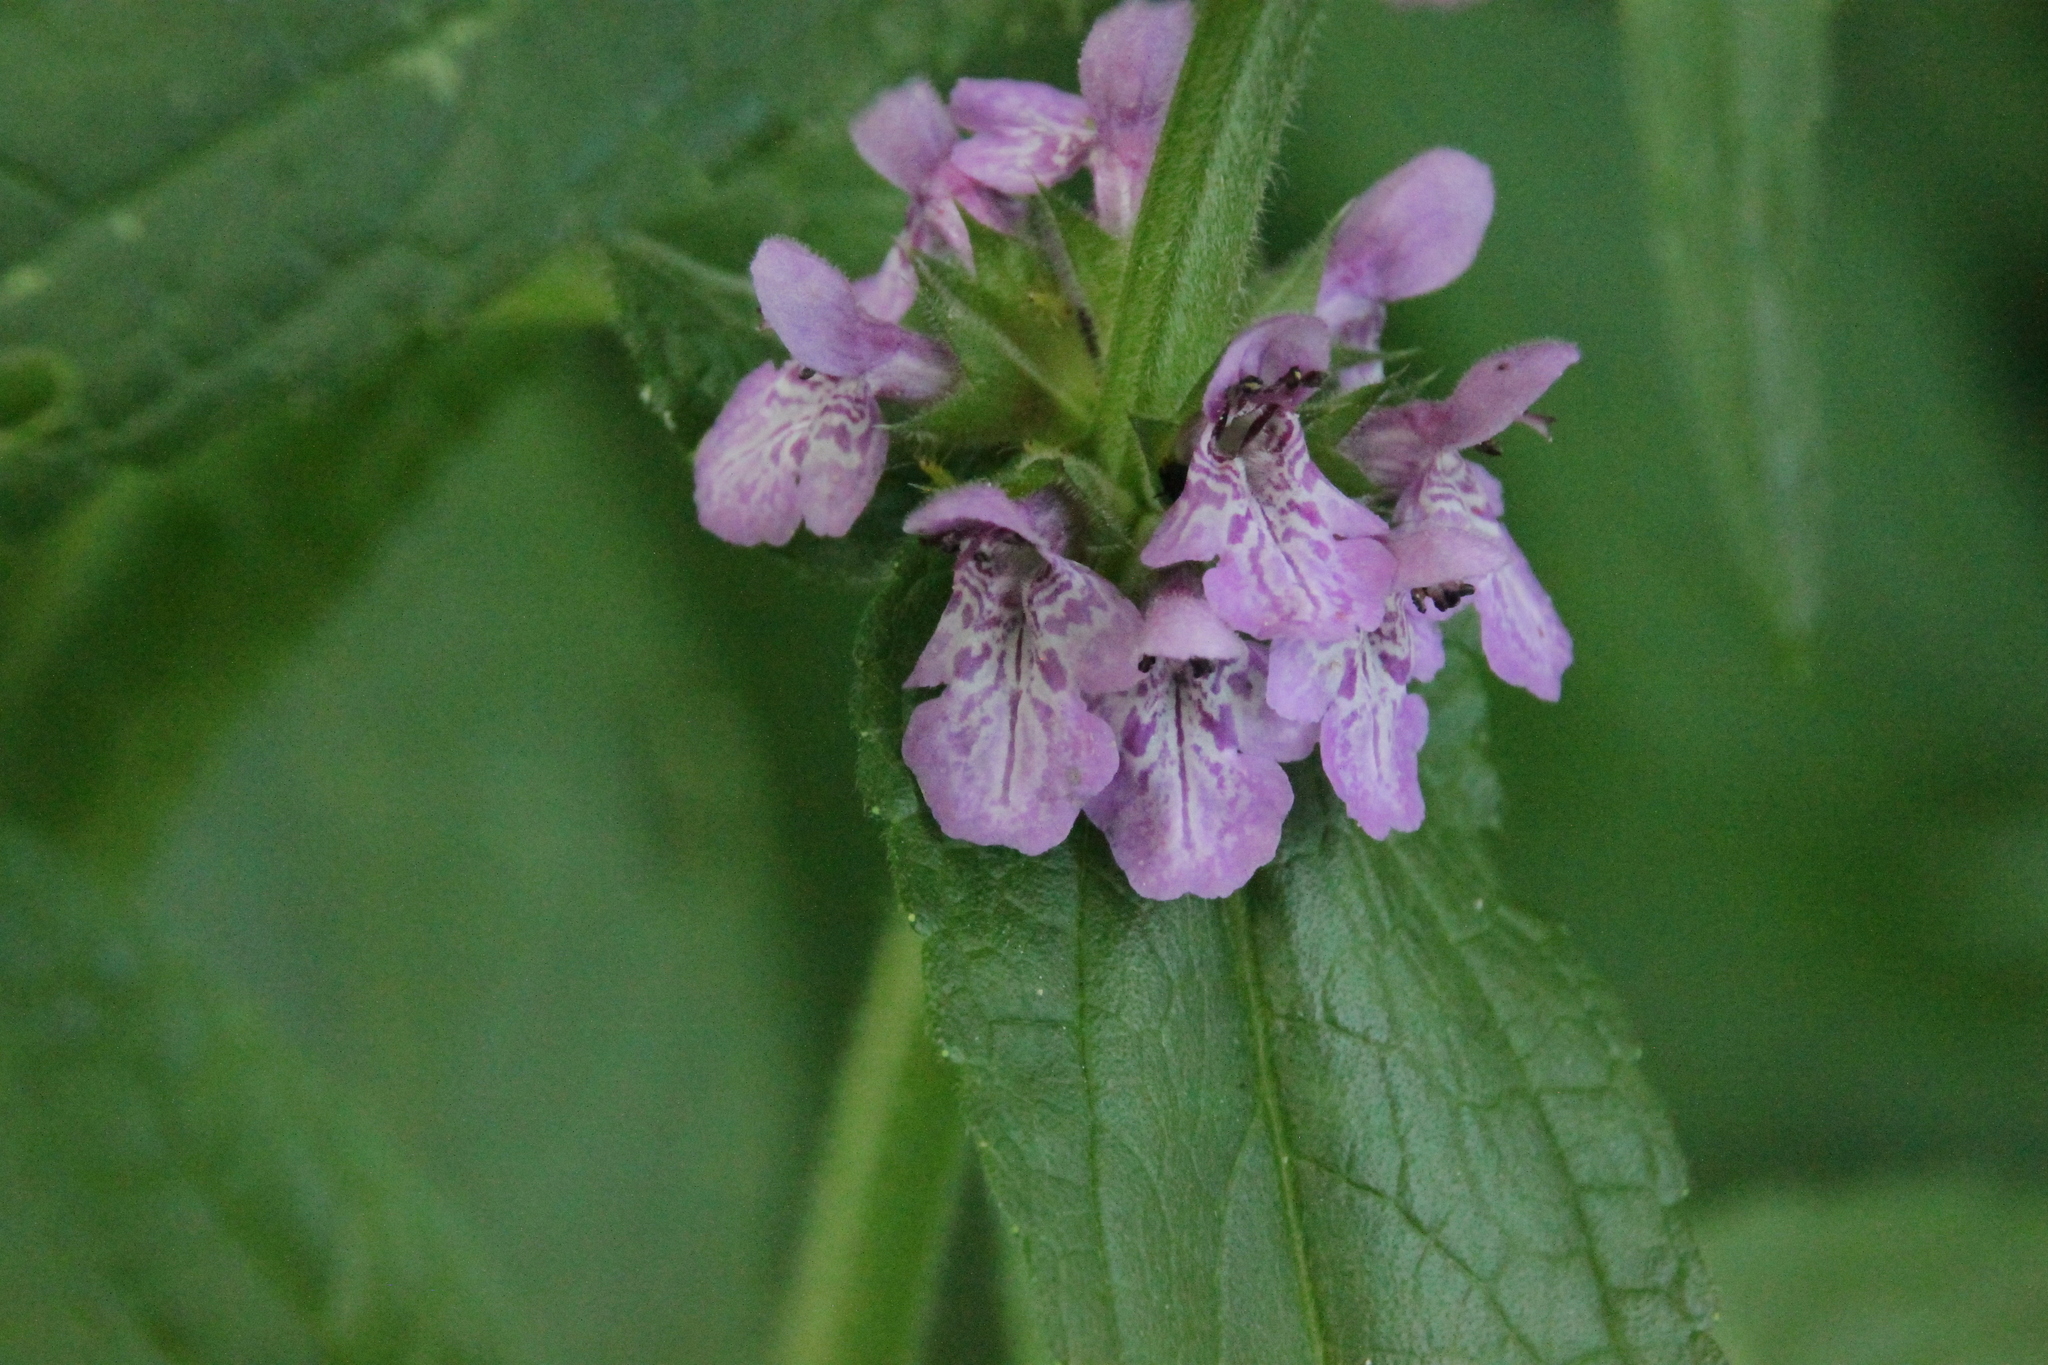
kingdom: Plantae
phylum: Tracheophyta
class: Magnoliopsida
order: Lamiales
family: Lamiaceae
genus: Stachys
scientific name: Stachys palustris
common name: Marsh woundwort
